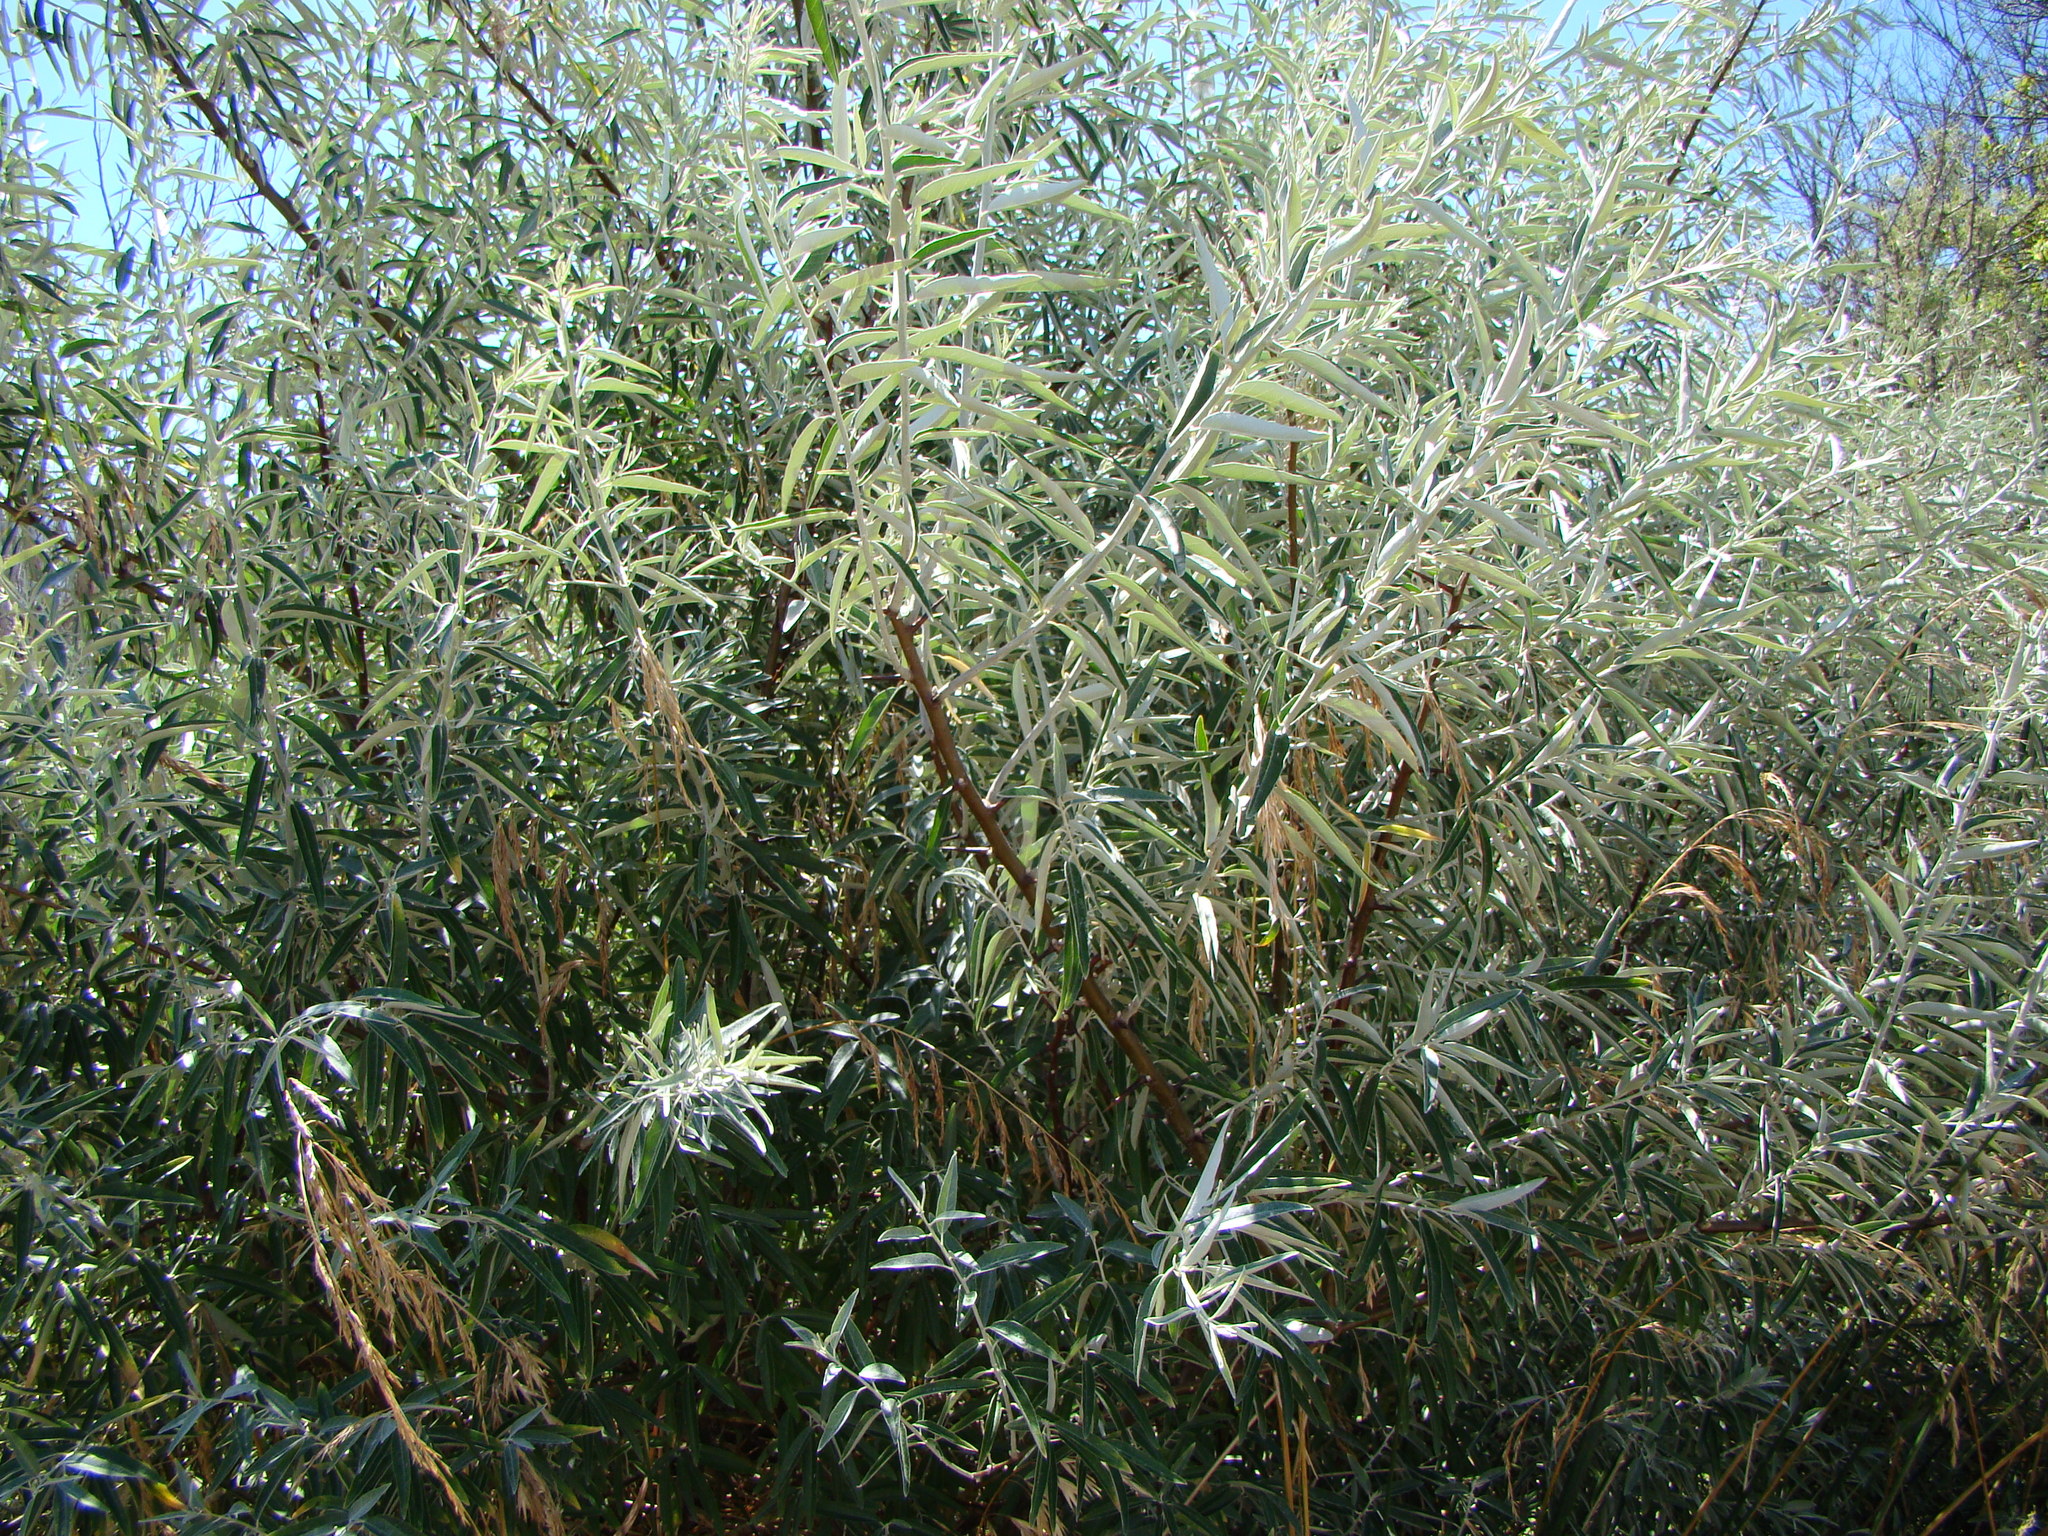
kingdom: Plantae
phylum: Tracheophyta
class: Magnoliopsida
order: Rosales
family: Elaeagnaceae
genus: Elaeagnus
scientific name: Elaeagnus angustifolia
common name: Russian olive
